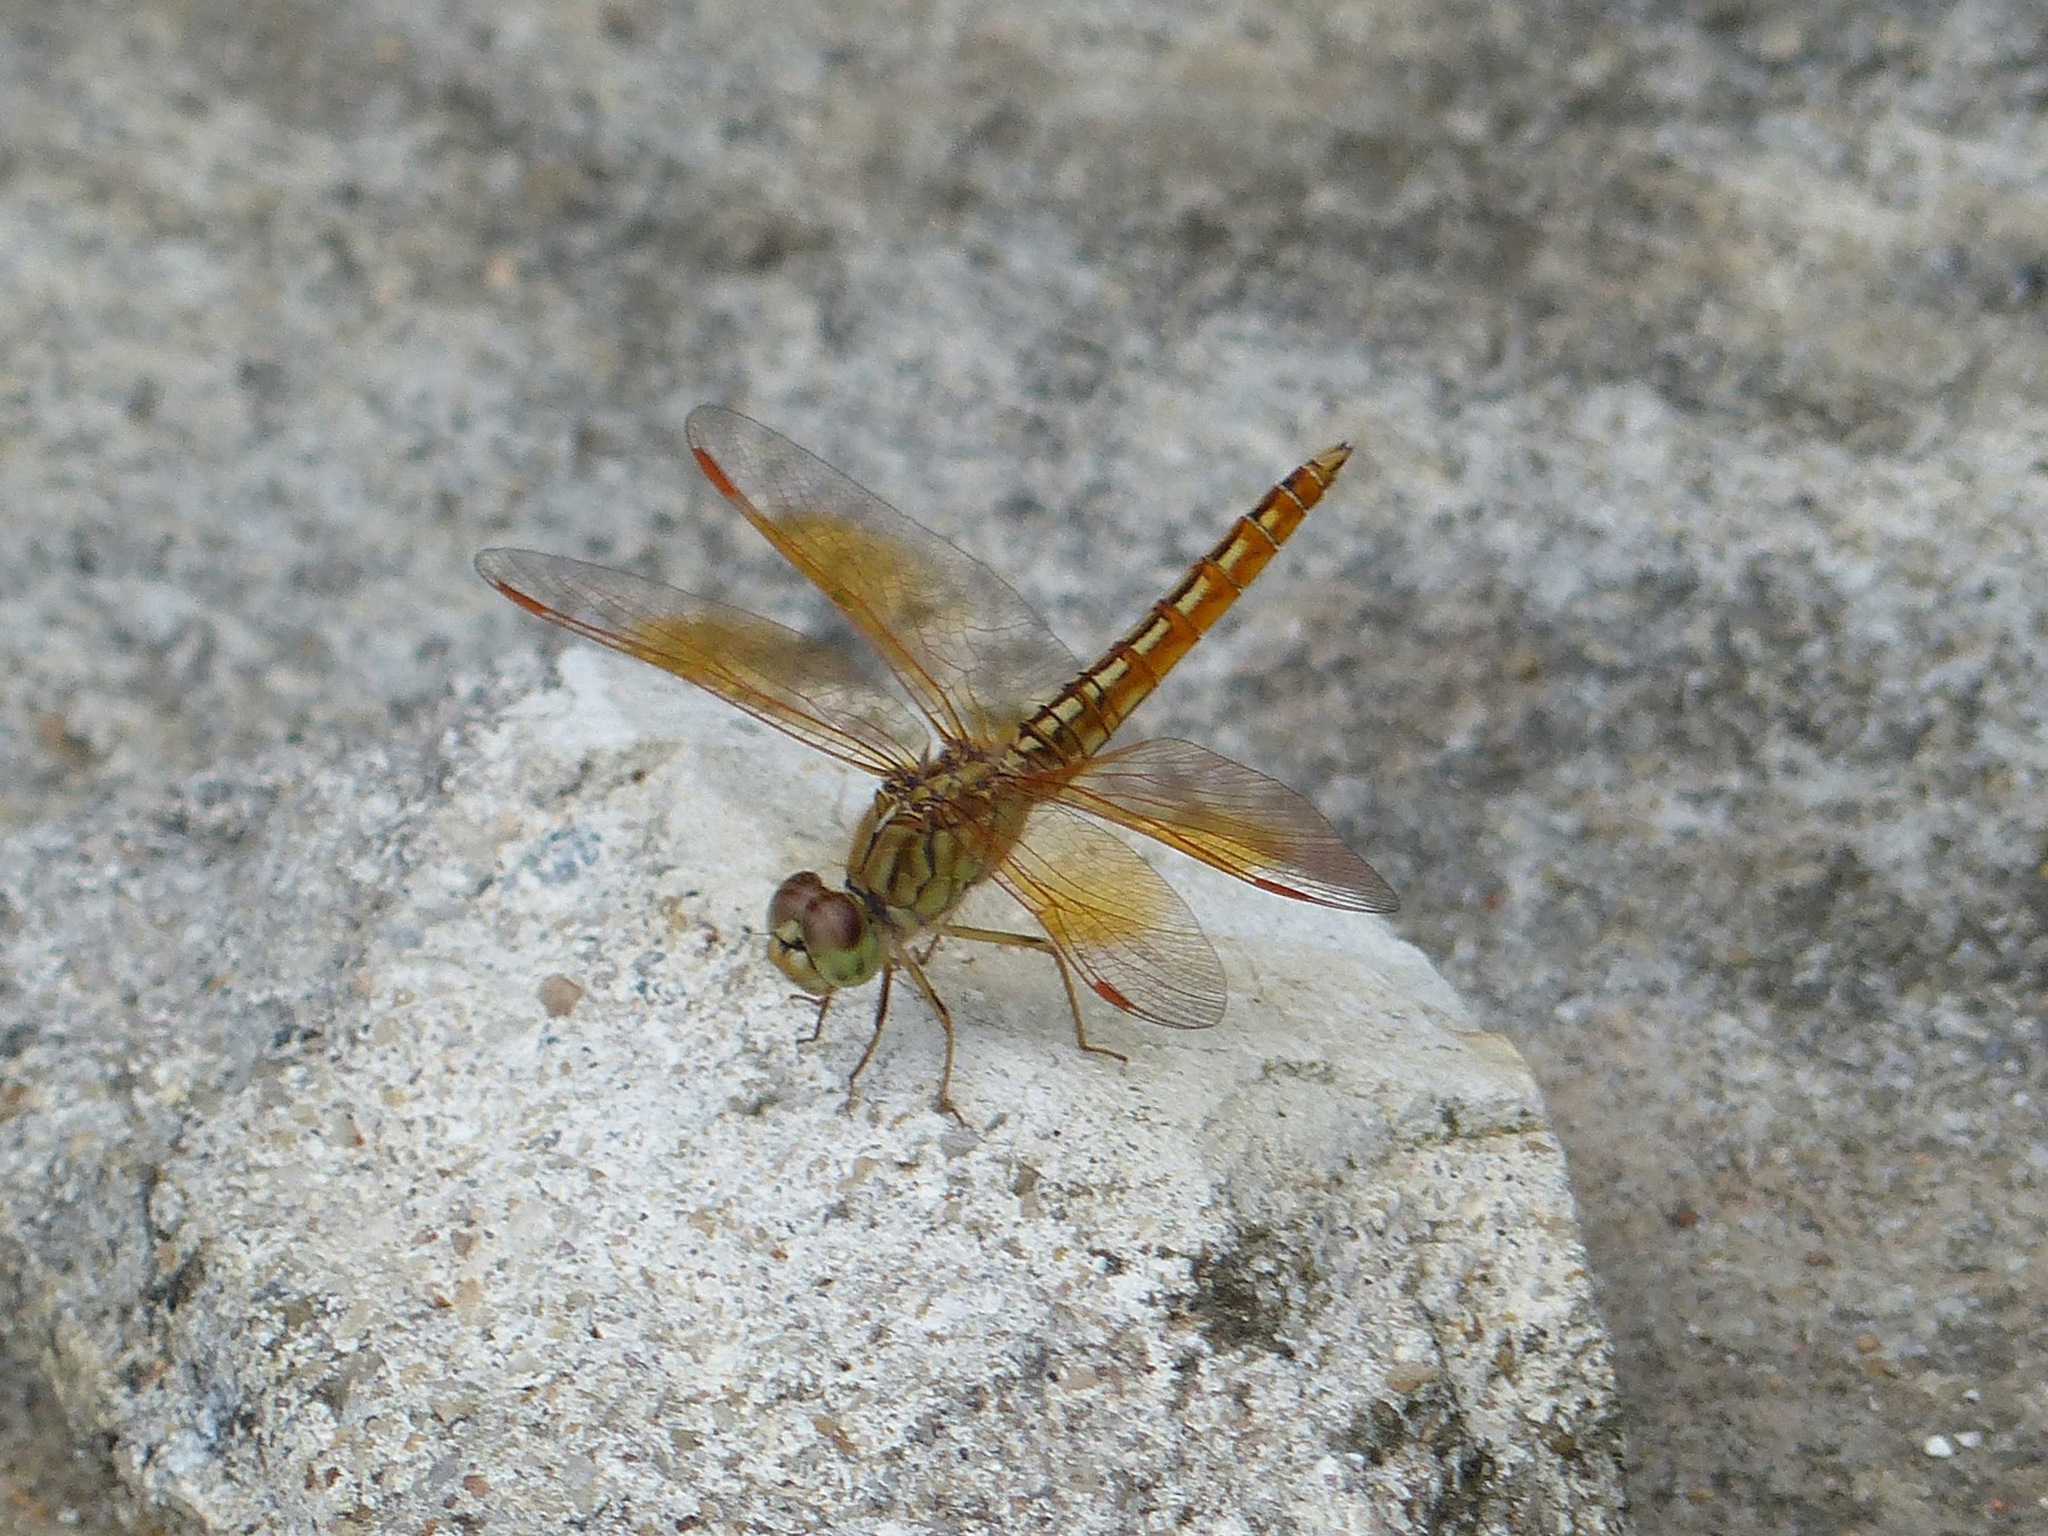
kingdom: Animalia
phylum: Arthropoda
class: Insecta
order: Odonata
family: Libellulidae
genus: Brachythemis
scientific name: Brachythemis contaminata
